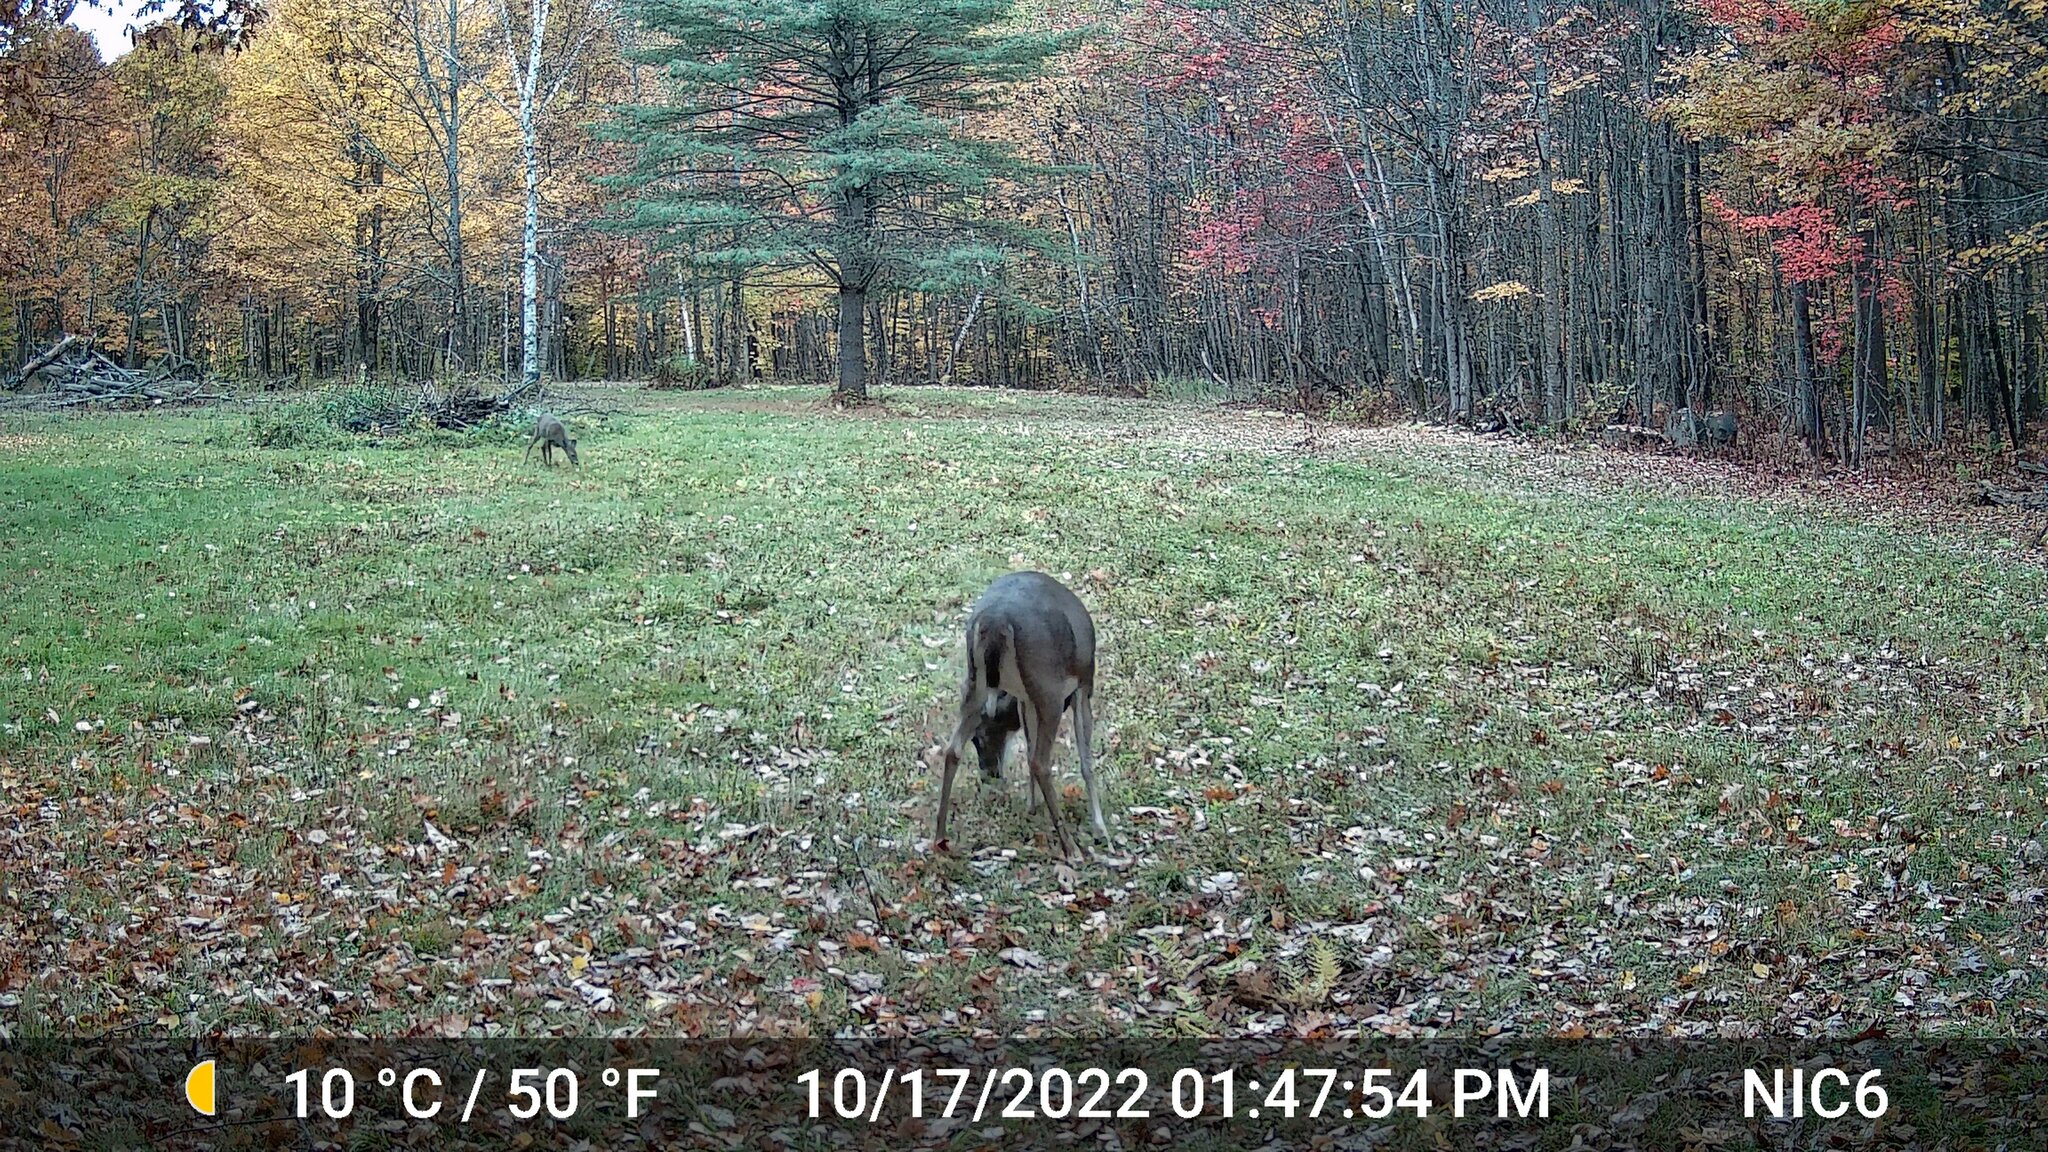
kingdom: Animalia
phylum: Chordata
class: Mammalia
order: Artiodactyla
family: Cervidae
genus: Odocoileus
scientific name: Odocoileus virginianus
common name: White-tailed deer
